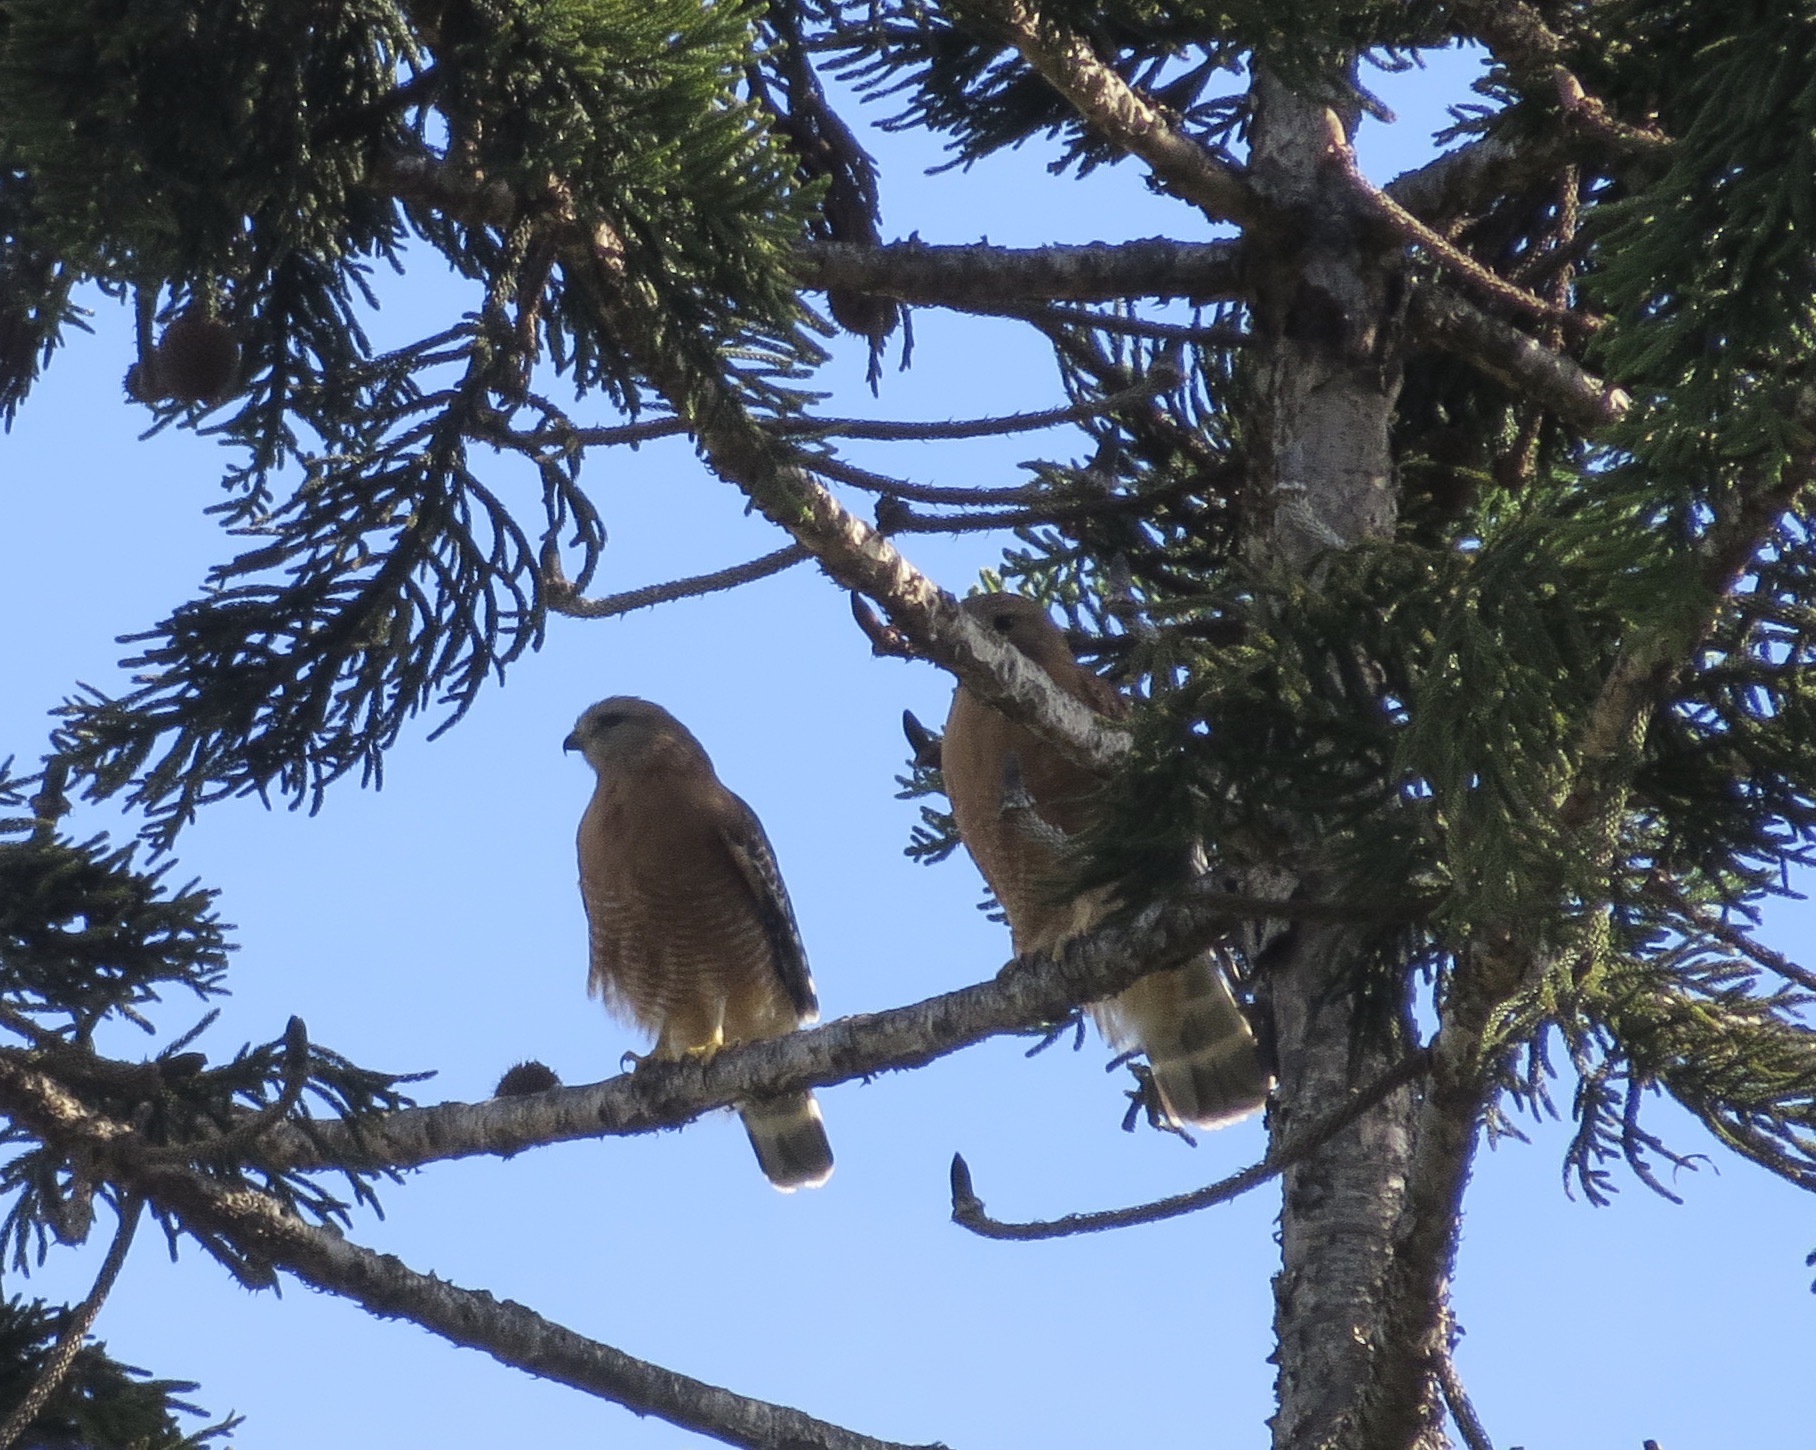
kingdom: Animalia
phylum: Chordata
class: Aves
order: Accipitriformes
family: Accipitridae
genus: Buteo
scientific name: Buteo lineatus
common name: Red-shouldered hawk
